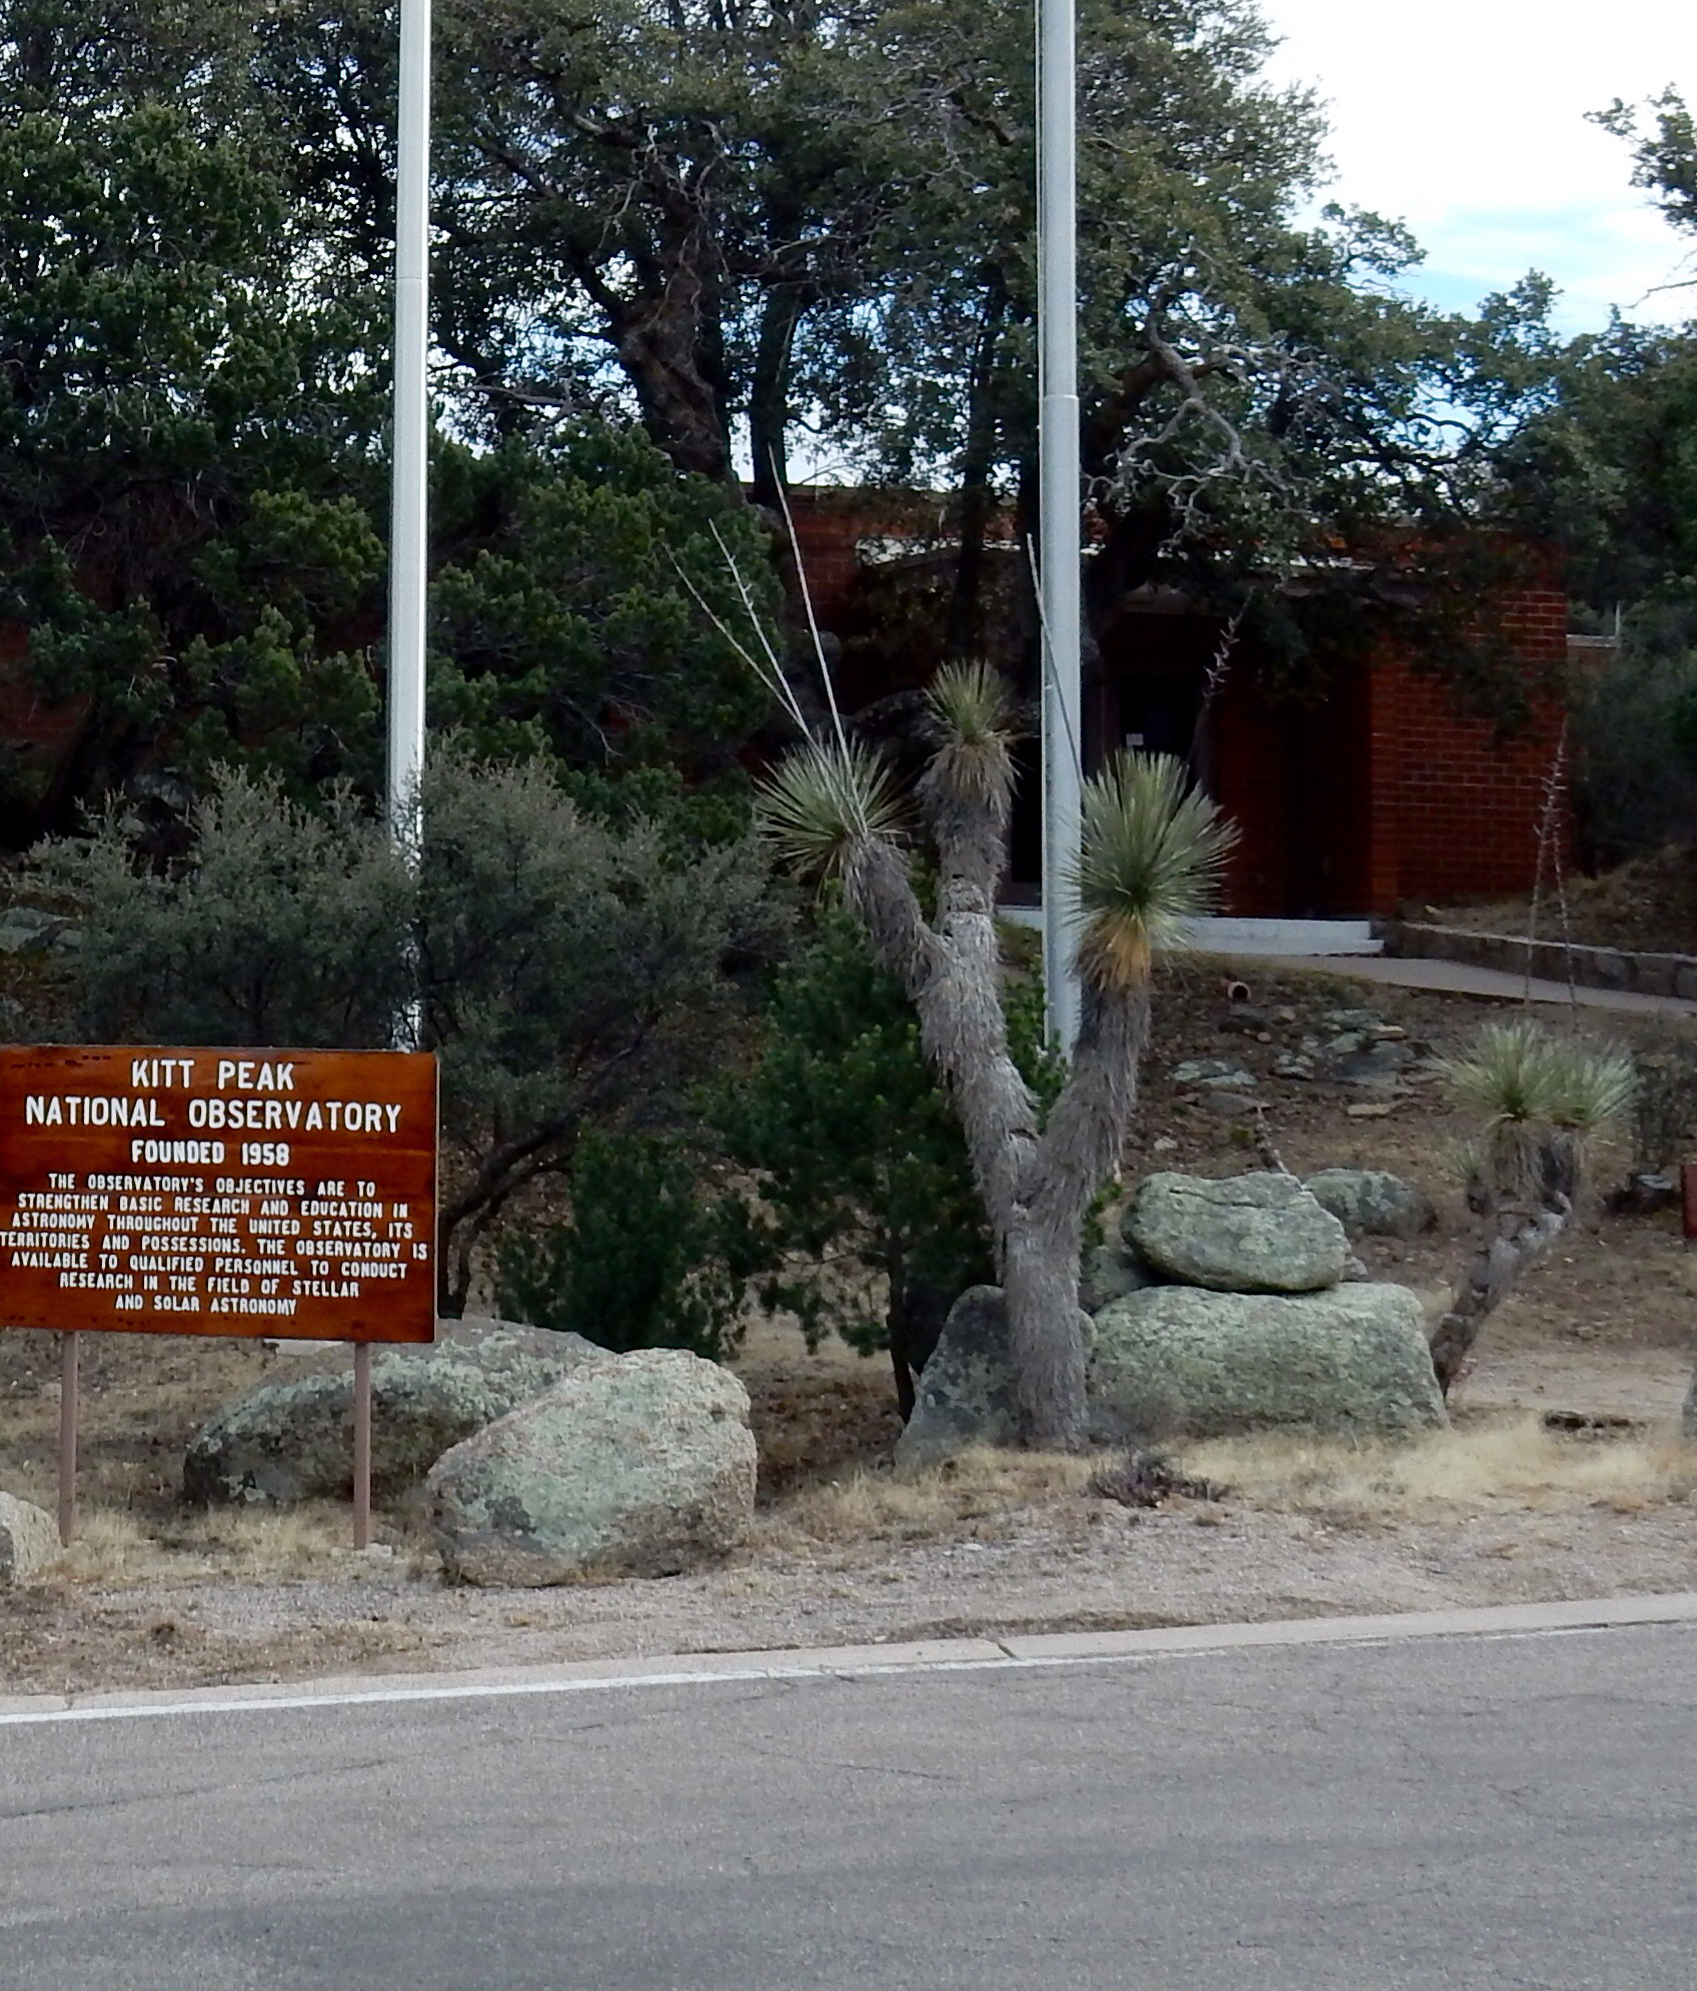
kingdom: Plantae
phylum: Tracheophyta
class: Liliopsida
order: Asparagales
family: Asparagaceae
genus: Yucca
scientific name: Yucca elata
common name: Palmella
